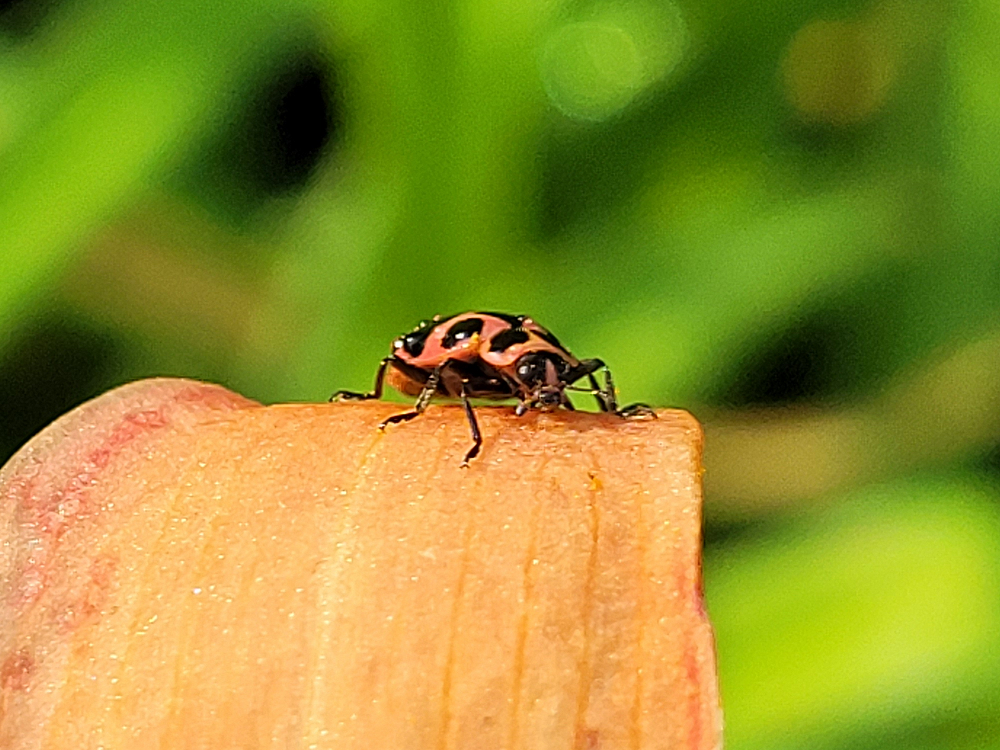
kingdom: Animalia
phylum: Arthropoda
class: Insecta
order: Coleoptera
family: Coccinellidae
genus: Coleomegilla
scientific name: Coleomegilla maculata
